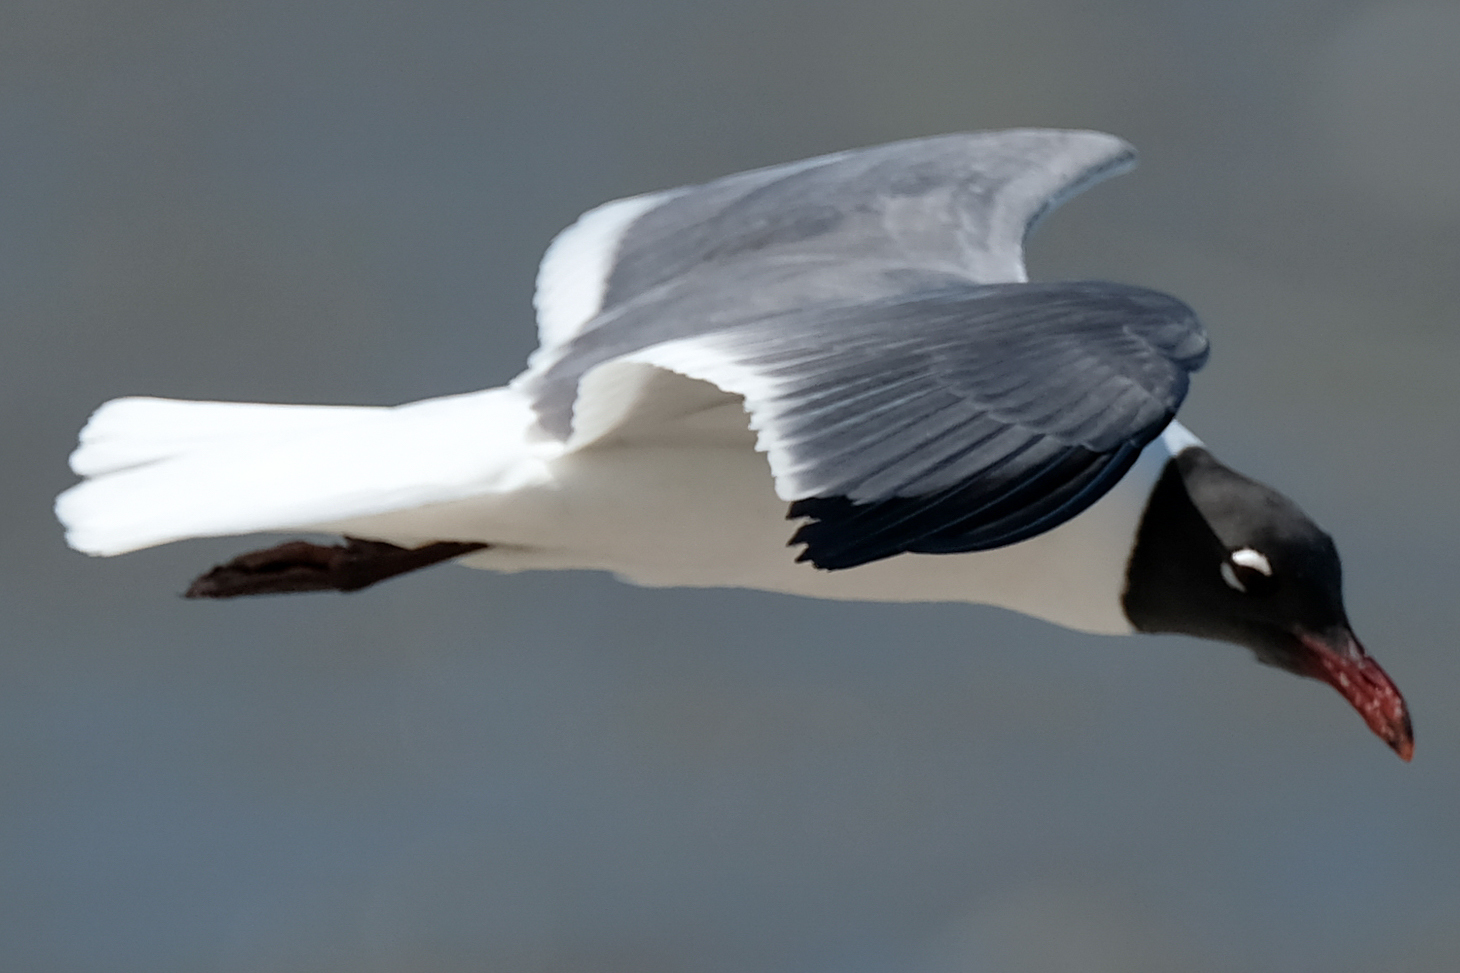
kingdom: Animalia
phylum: Chordata
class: Aves
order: Charadriiformes
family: Laridae
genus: Leucophaeus
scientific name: Leucophaeus atricilla
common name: Laughing gull
